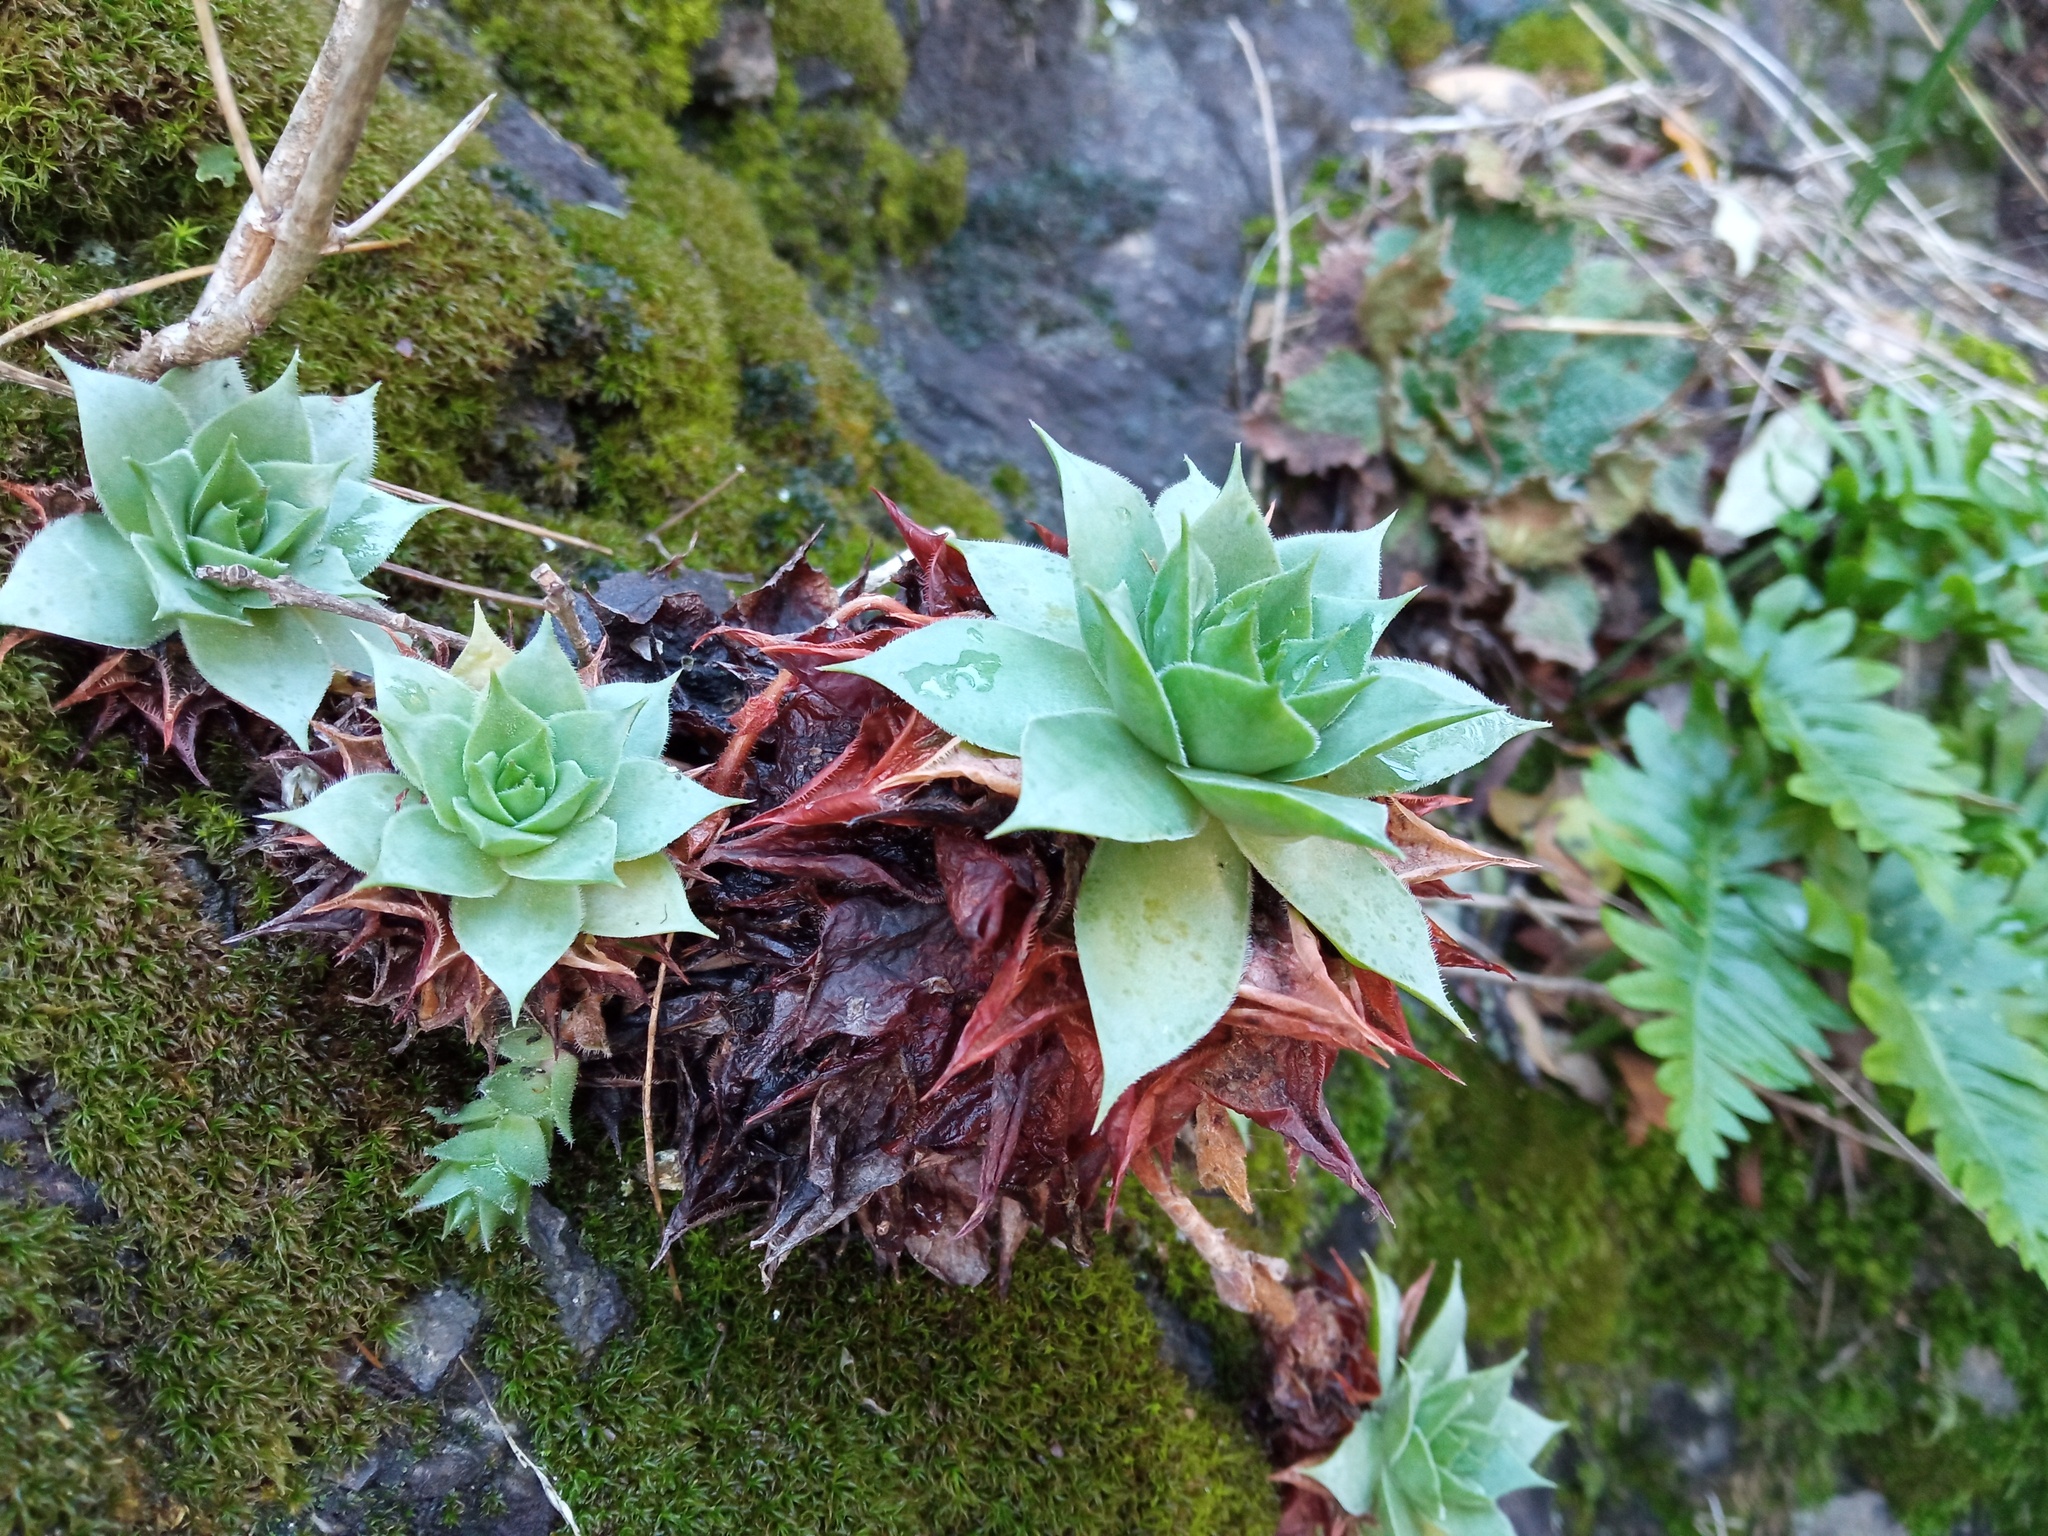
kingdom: Plantae
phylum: Tracheophyta
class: Magnoliopsida
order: Saxifragales
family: Crassulaceae
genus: Sempervivum
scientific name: Sempervivum tectorum
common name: House-leek
